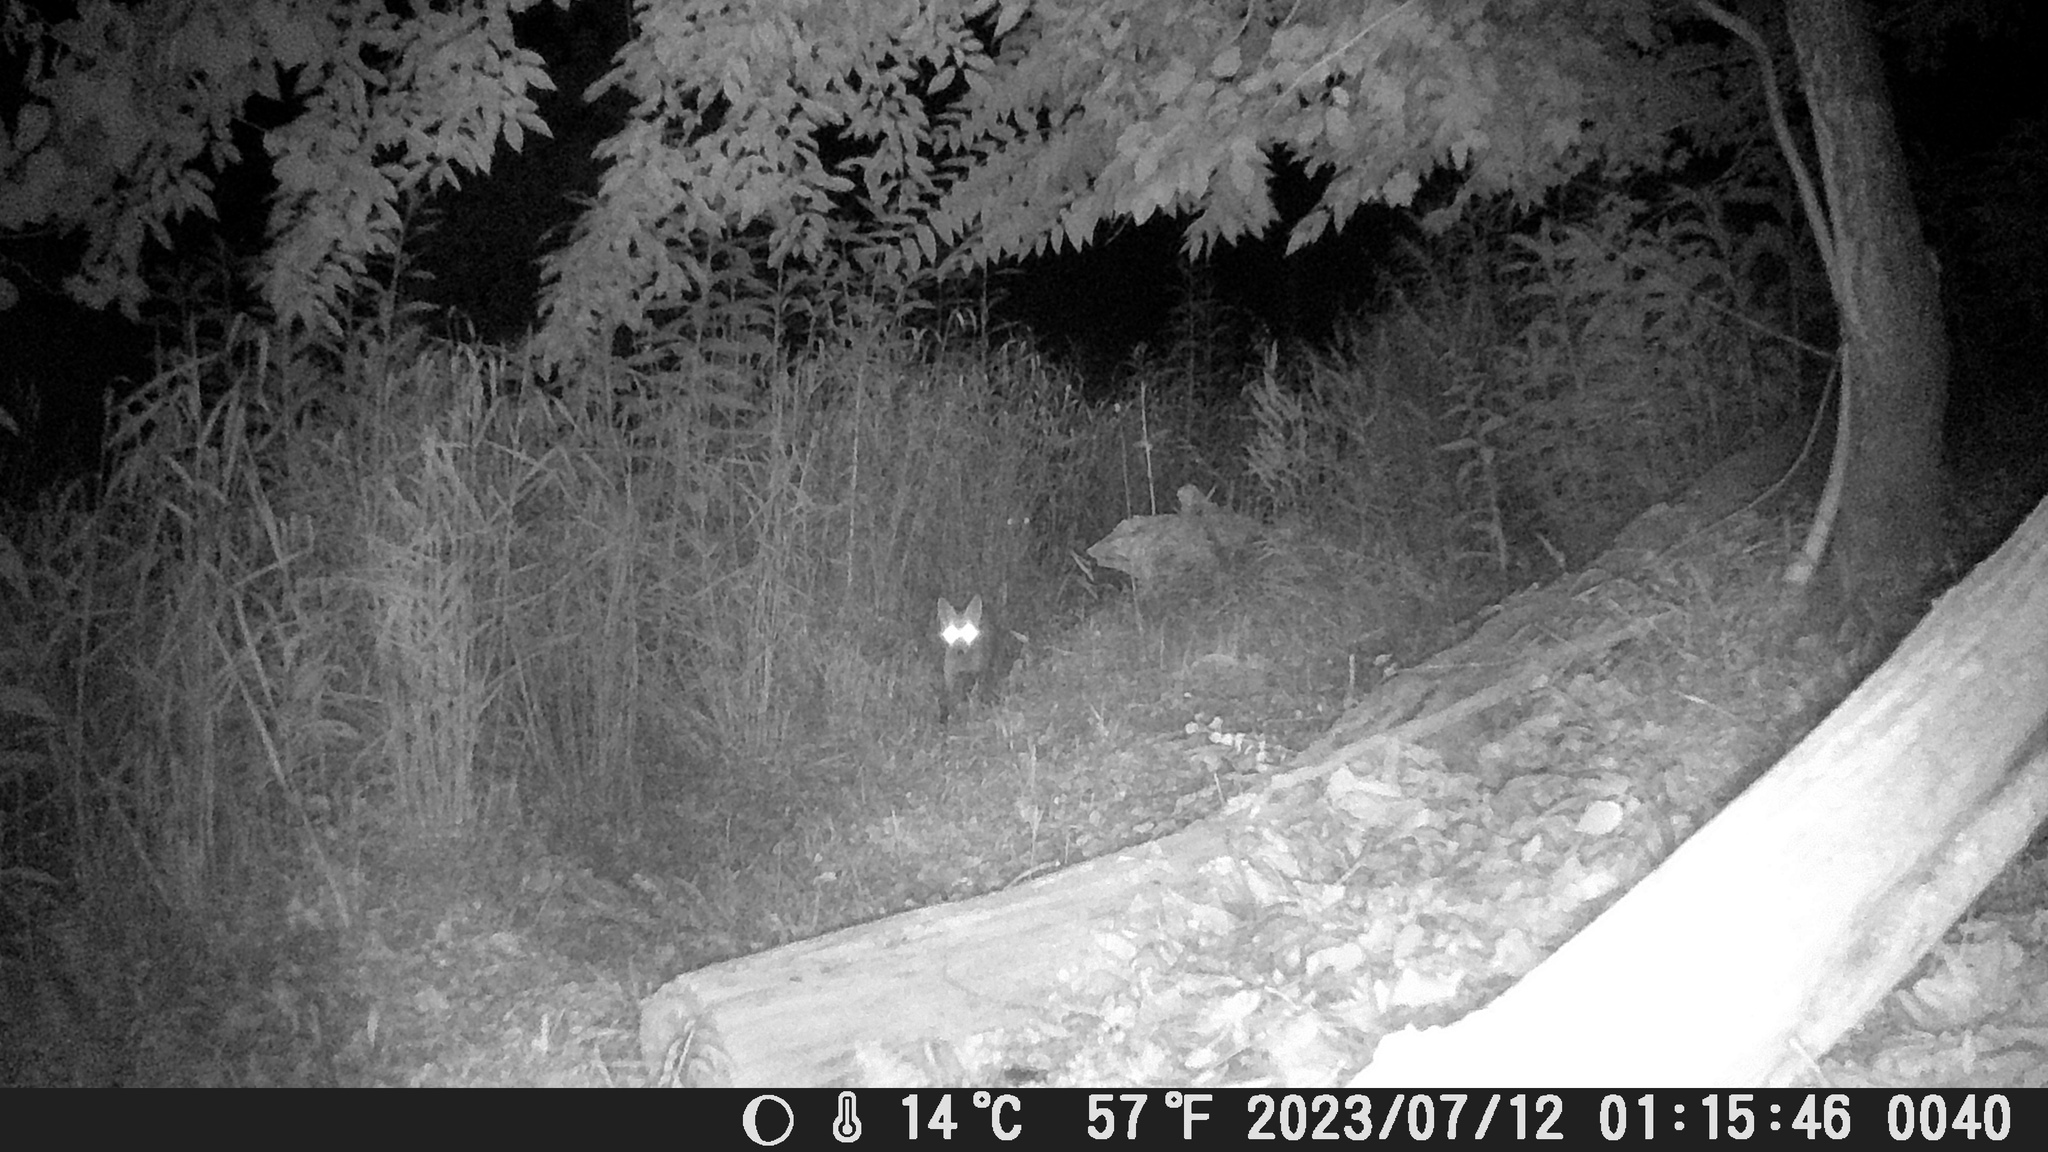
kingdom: Animalia
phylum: Chordata
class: Mammalia
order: Carnivora
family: Canidae
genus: Vulpes
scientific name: Vulpes vulpes
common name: Red fox
